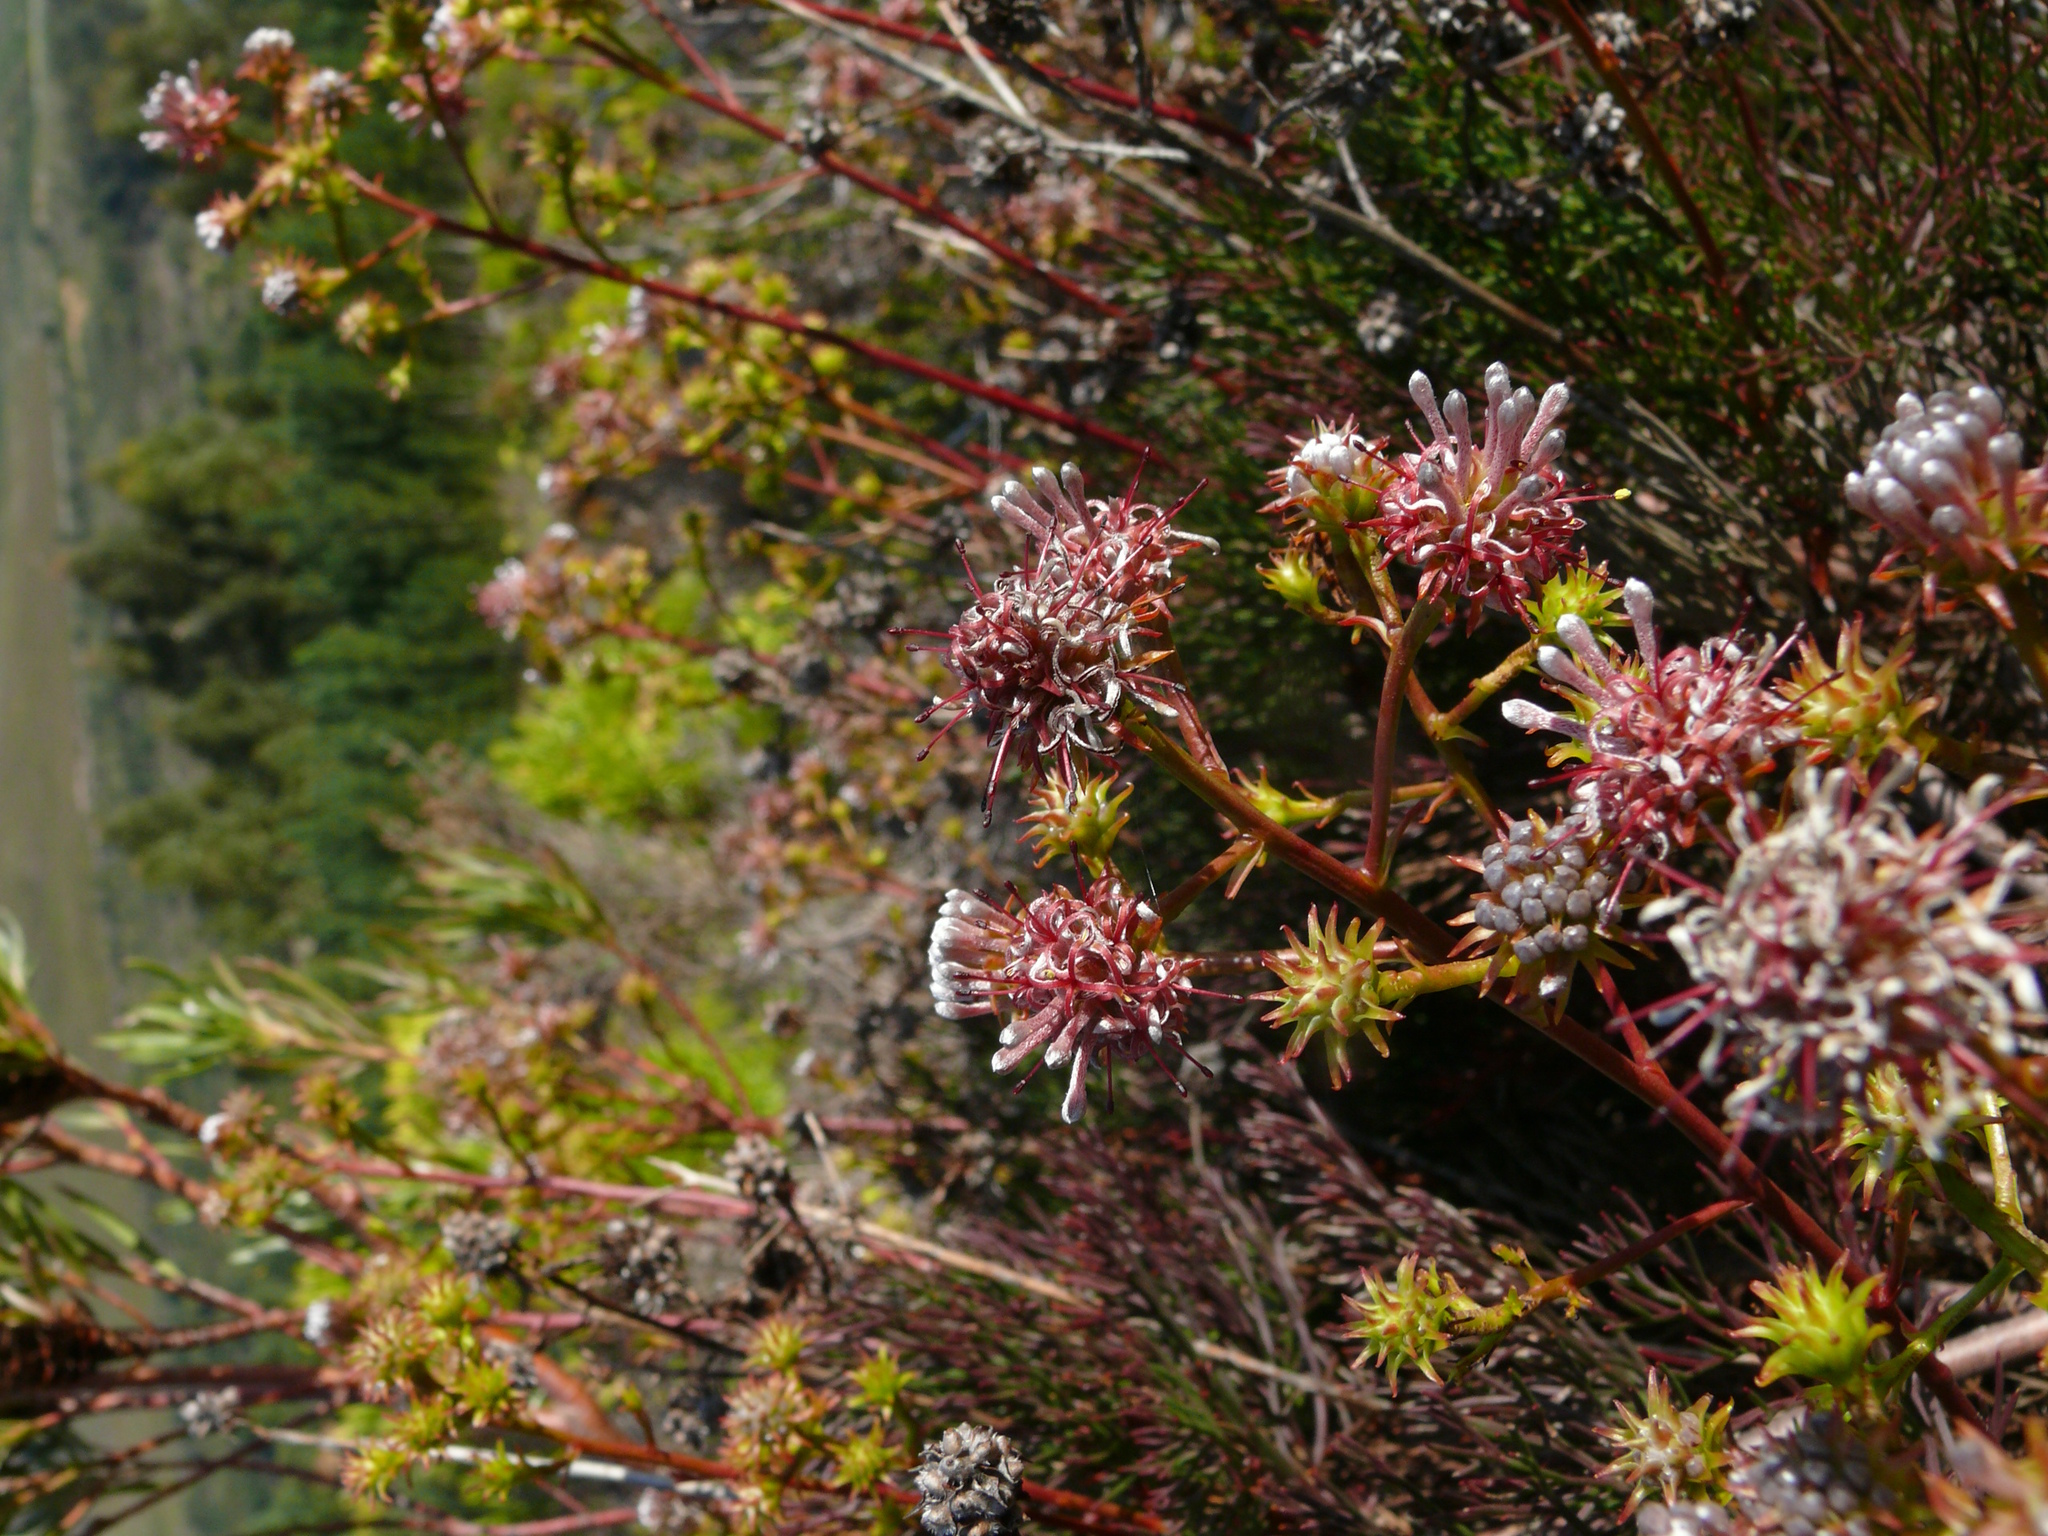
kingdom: Plantae
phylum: Tracheophyta
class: Magnoliopsida
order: Proteales
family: Proteaceae
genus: Serruria
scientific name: Serruria elongata
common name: Long-stalk spiderhead
